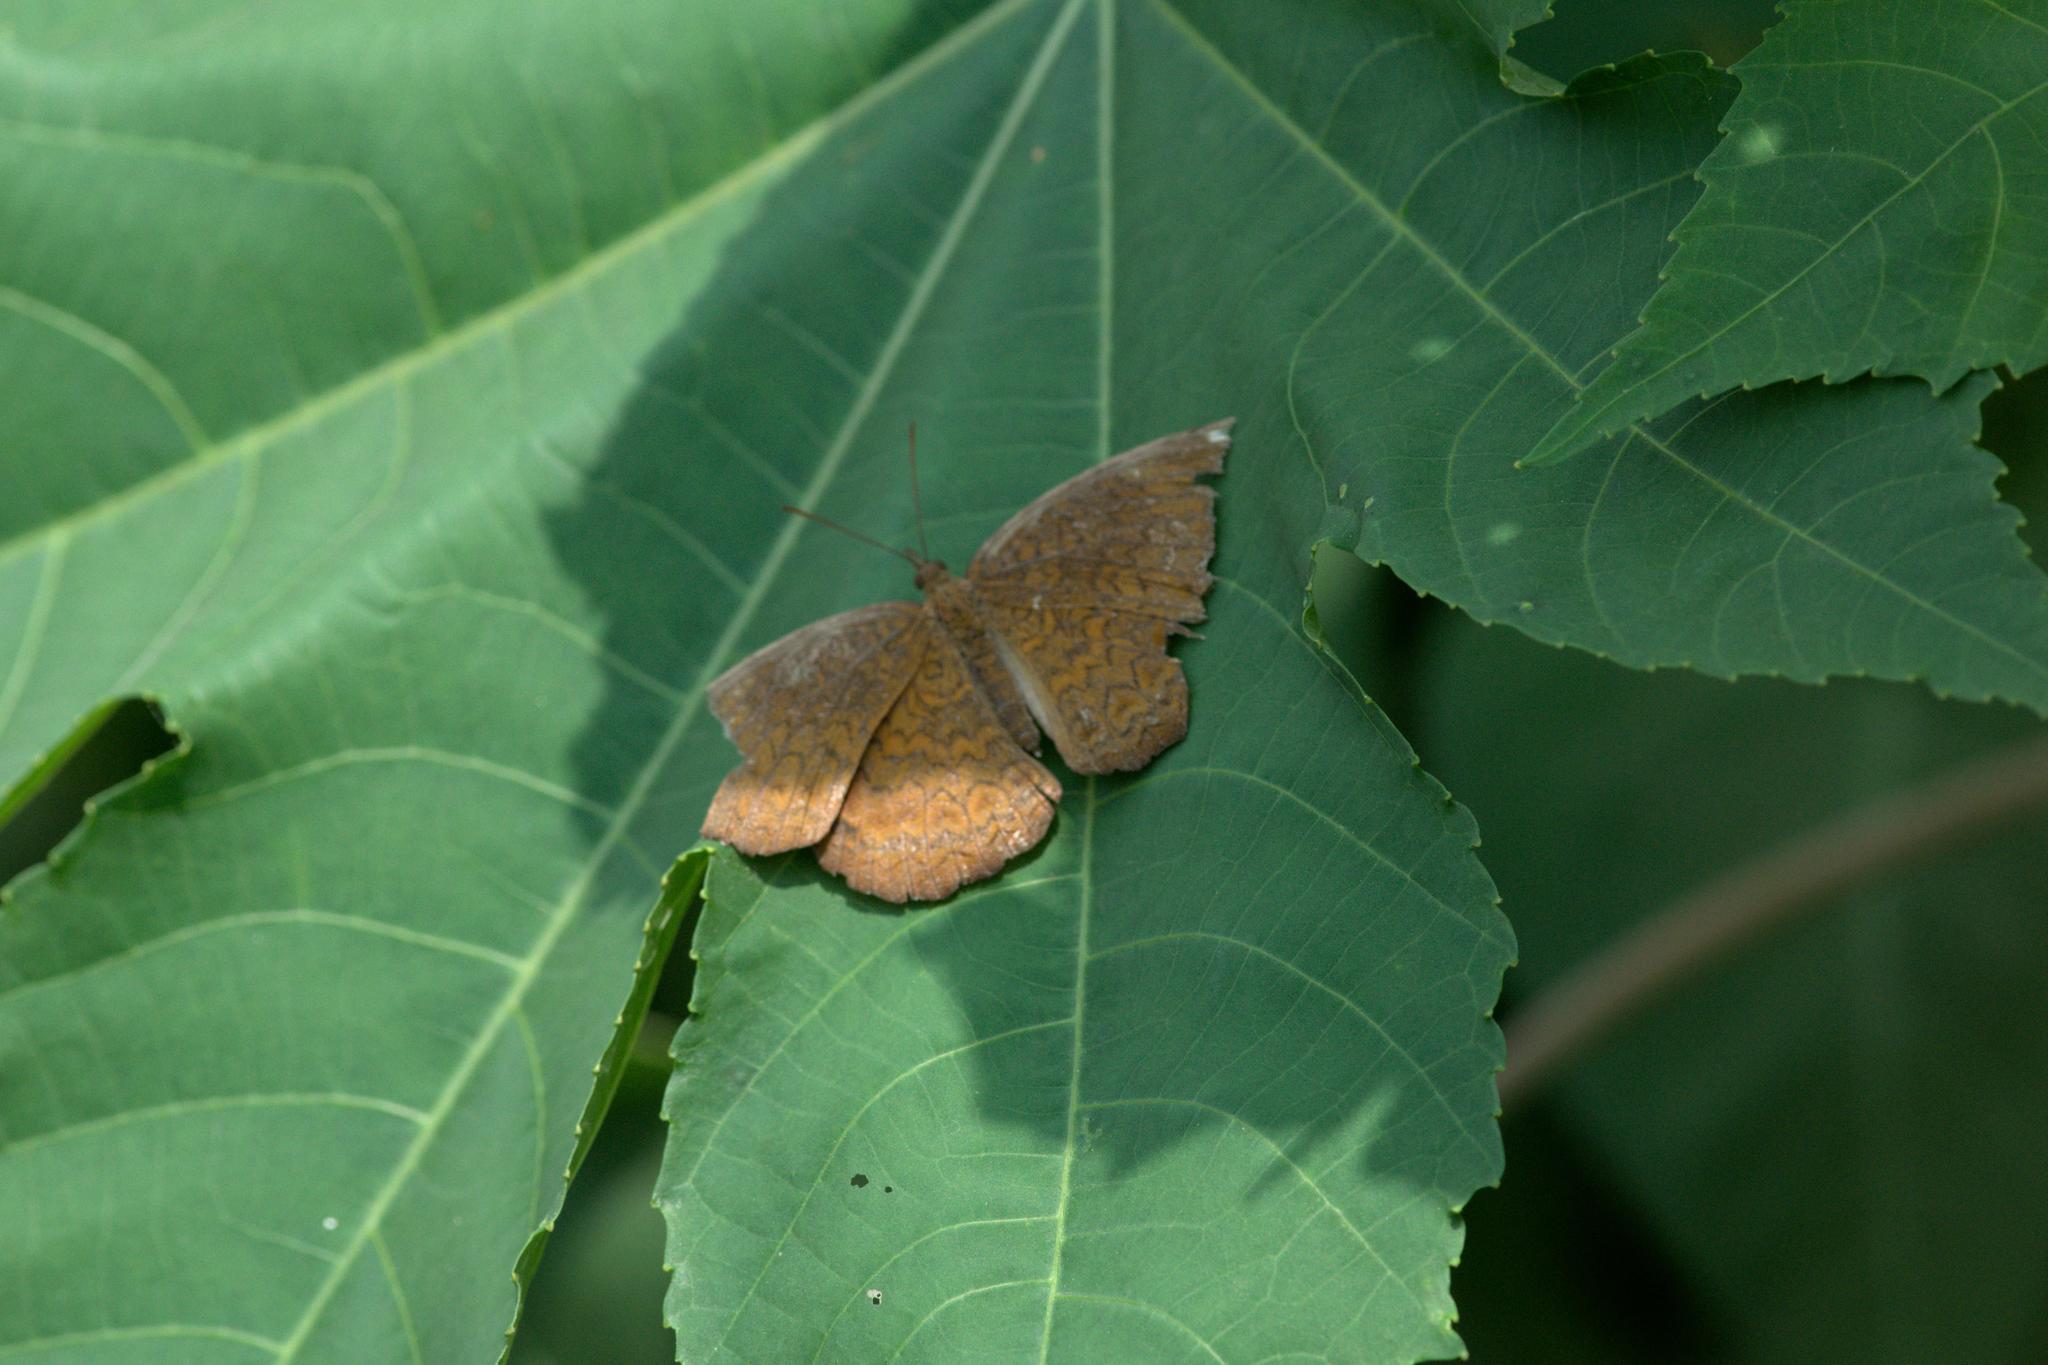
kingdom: Animalia
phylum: Arthropoda
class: Insecta
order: Lepidoptera
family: Nymphalidae
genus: Ariadne
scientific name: Ariadne merione
